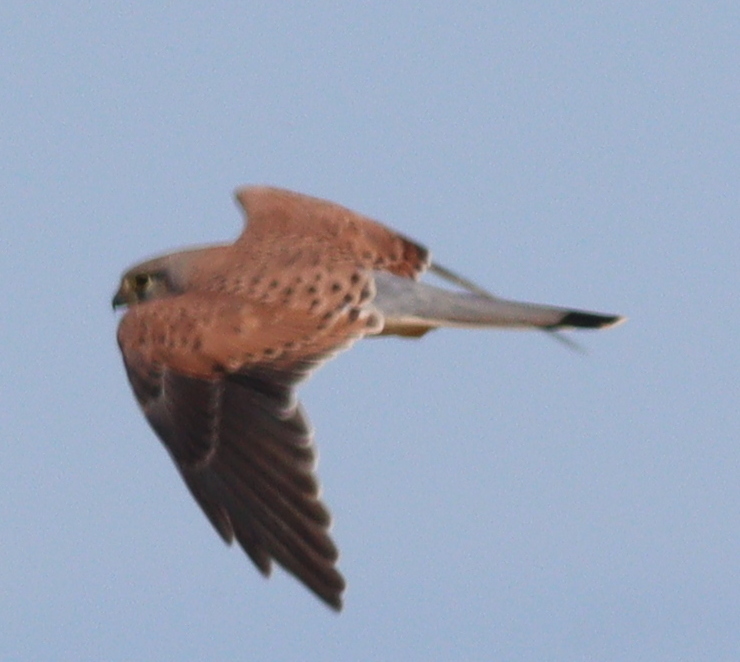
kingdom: Animalia
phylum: Chordata
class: Aves
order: Falconiformes
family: Falconidae
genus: Falco
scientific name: Falco tinnunculus
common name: Common kestrel
